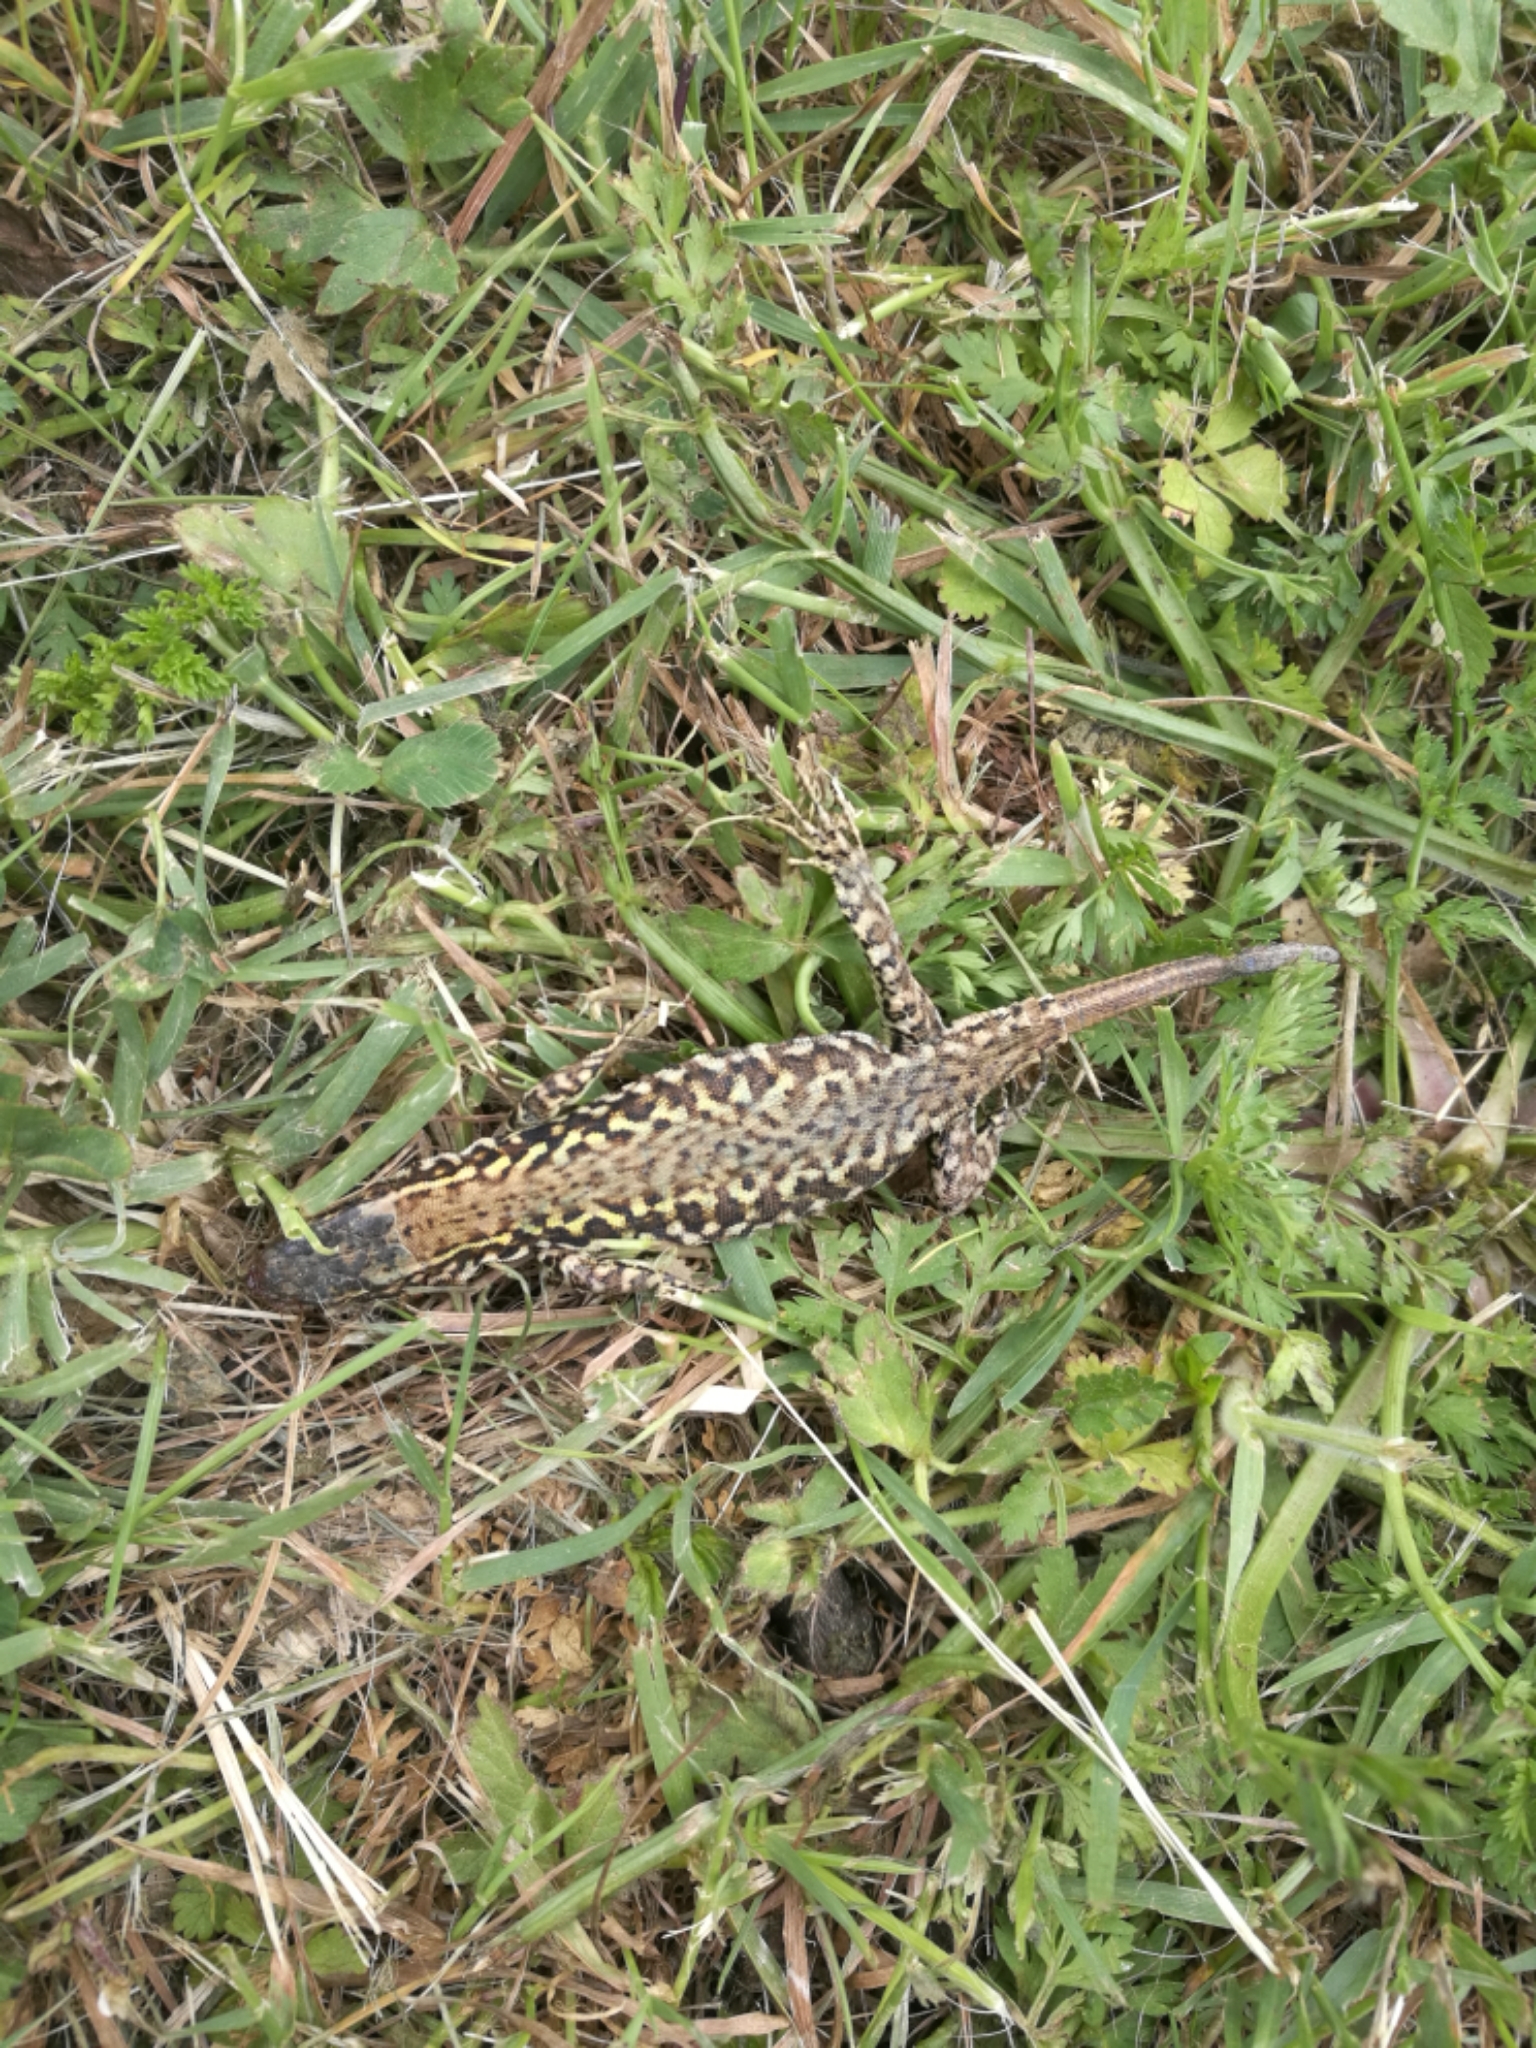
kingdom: Animalia
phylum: Chordata
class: Squamata
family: Lacertidae
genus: Podarcis
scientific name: Podarcis muralis
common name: Common wall lizard
